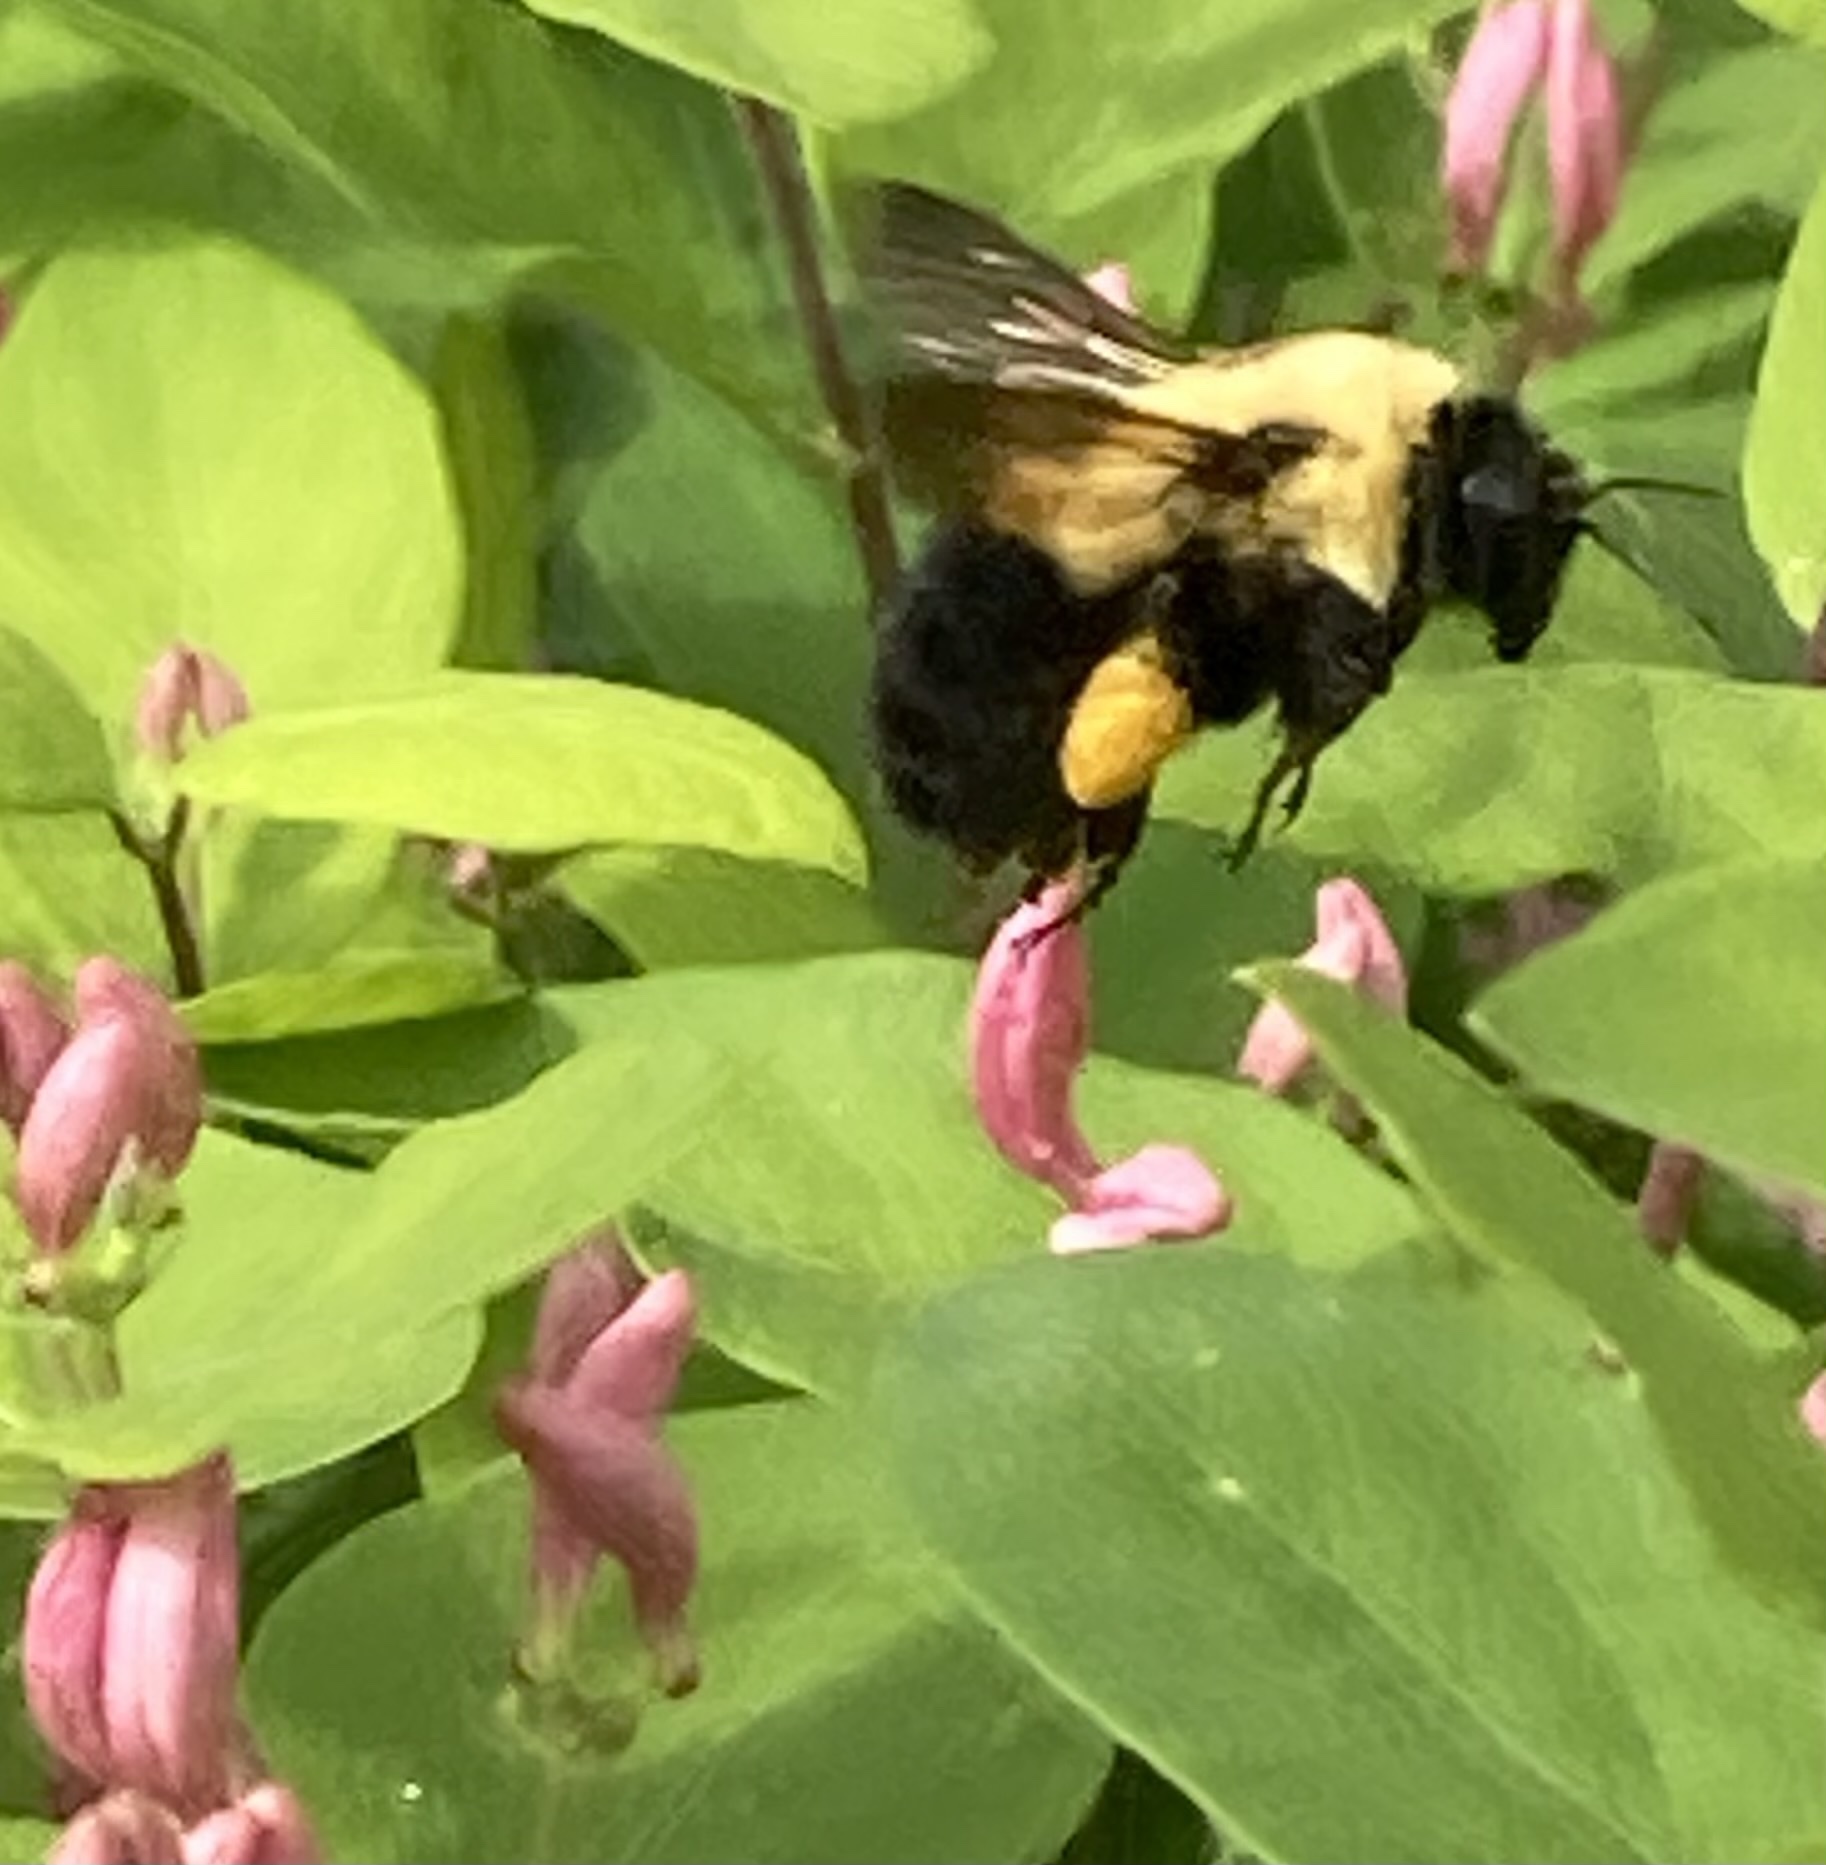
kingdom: Animalia
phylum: Arthropoda
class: Insecta
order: Hymenoptera
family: Apidae
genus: Bombus
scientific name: Bombus griseocollis
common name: Brown-belted bumble bee
